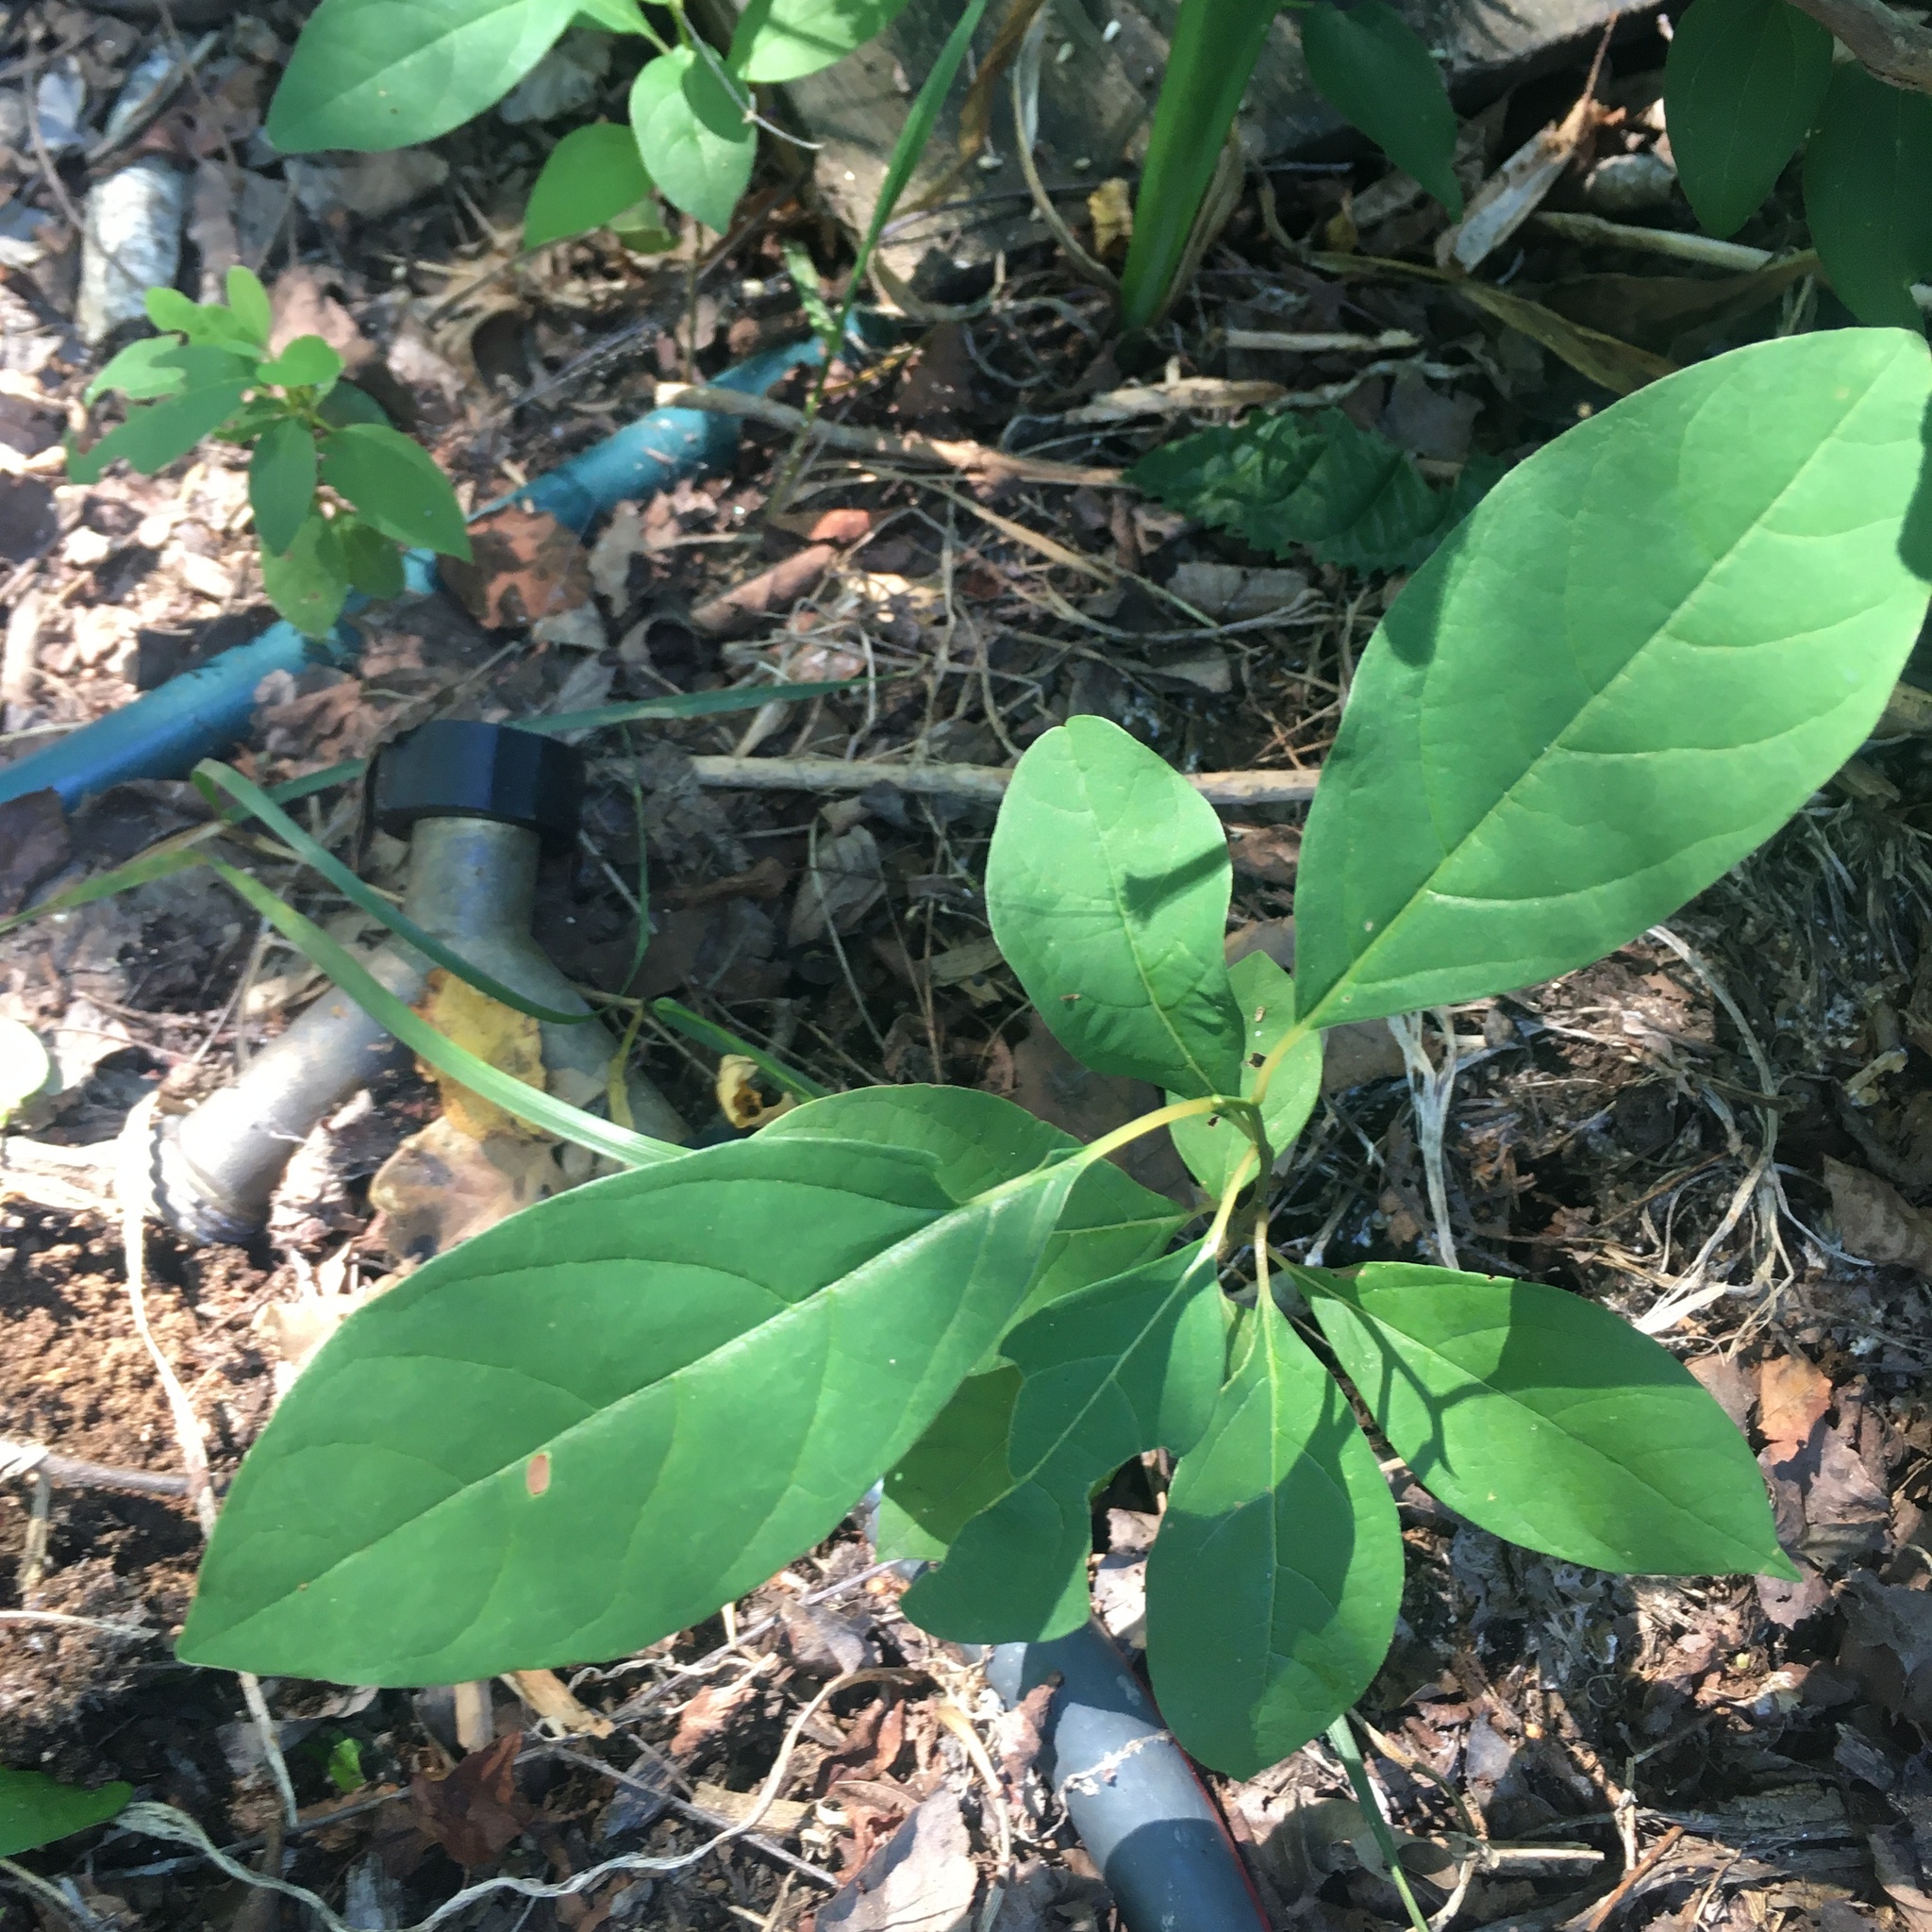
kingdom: Plantae
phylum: Tracheophyta
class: Magnoliopsida
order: Laurales
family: Lauraceae
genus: Lindera
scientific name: Lindera benzoin
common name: Spicebush
